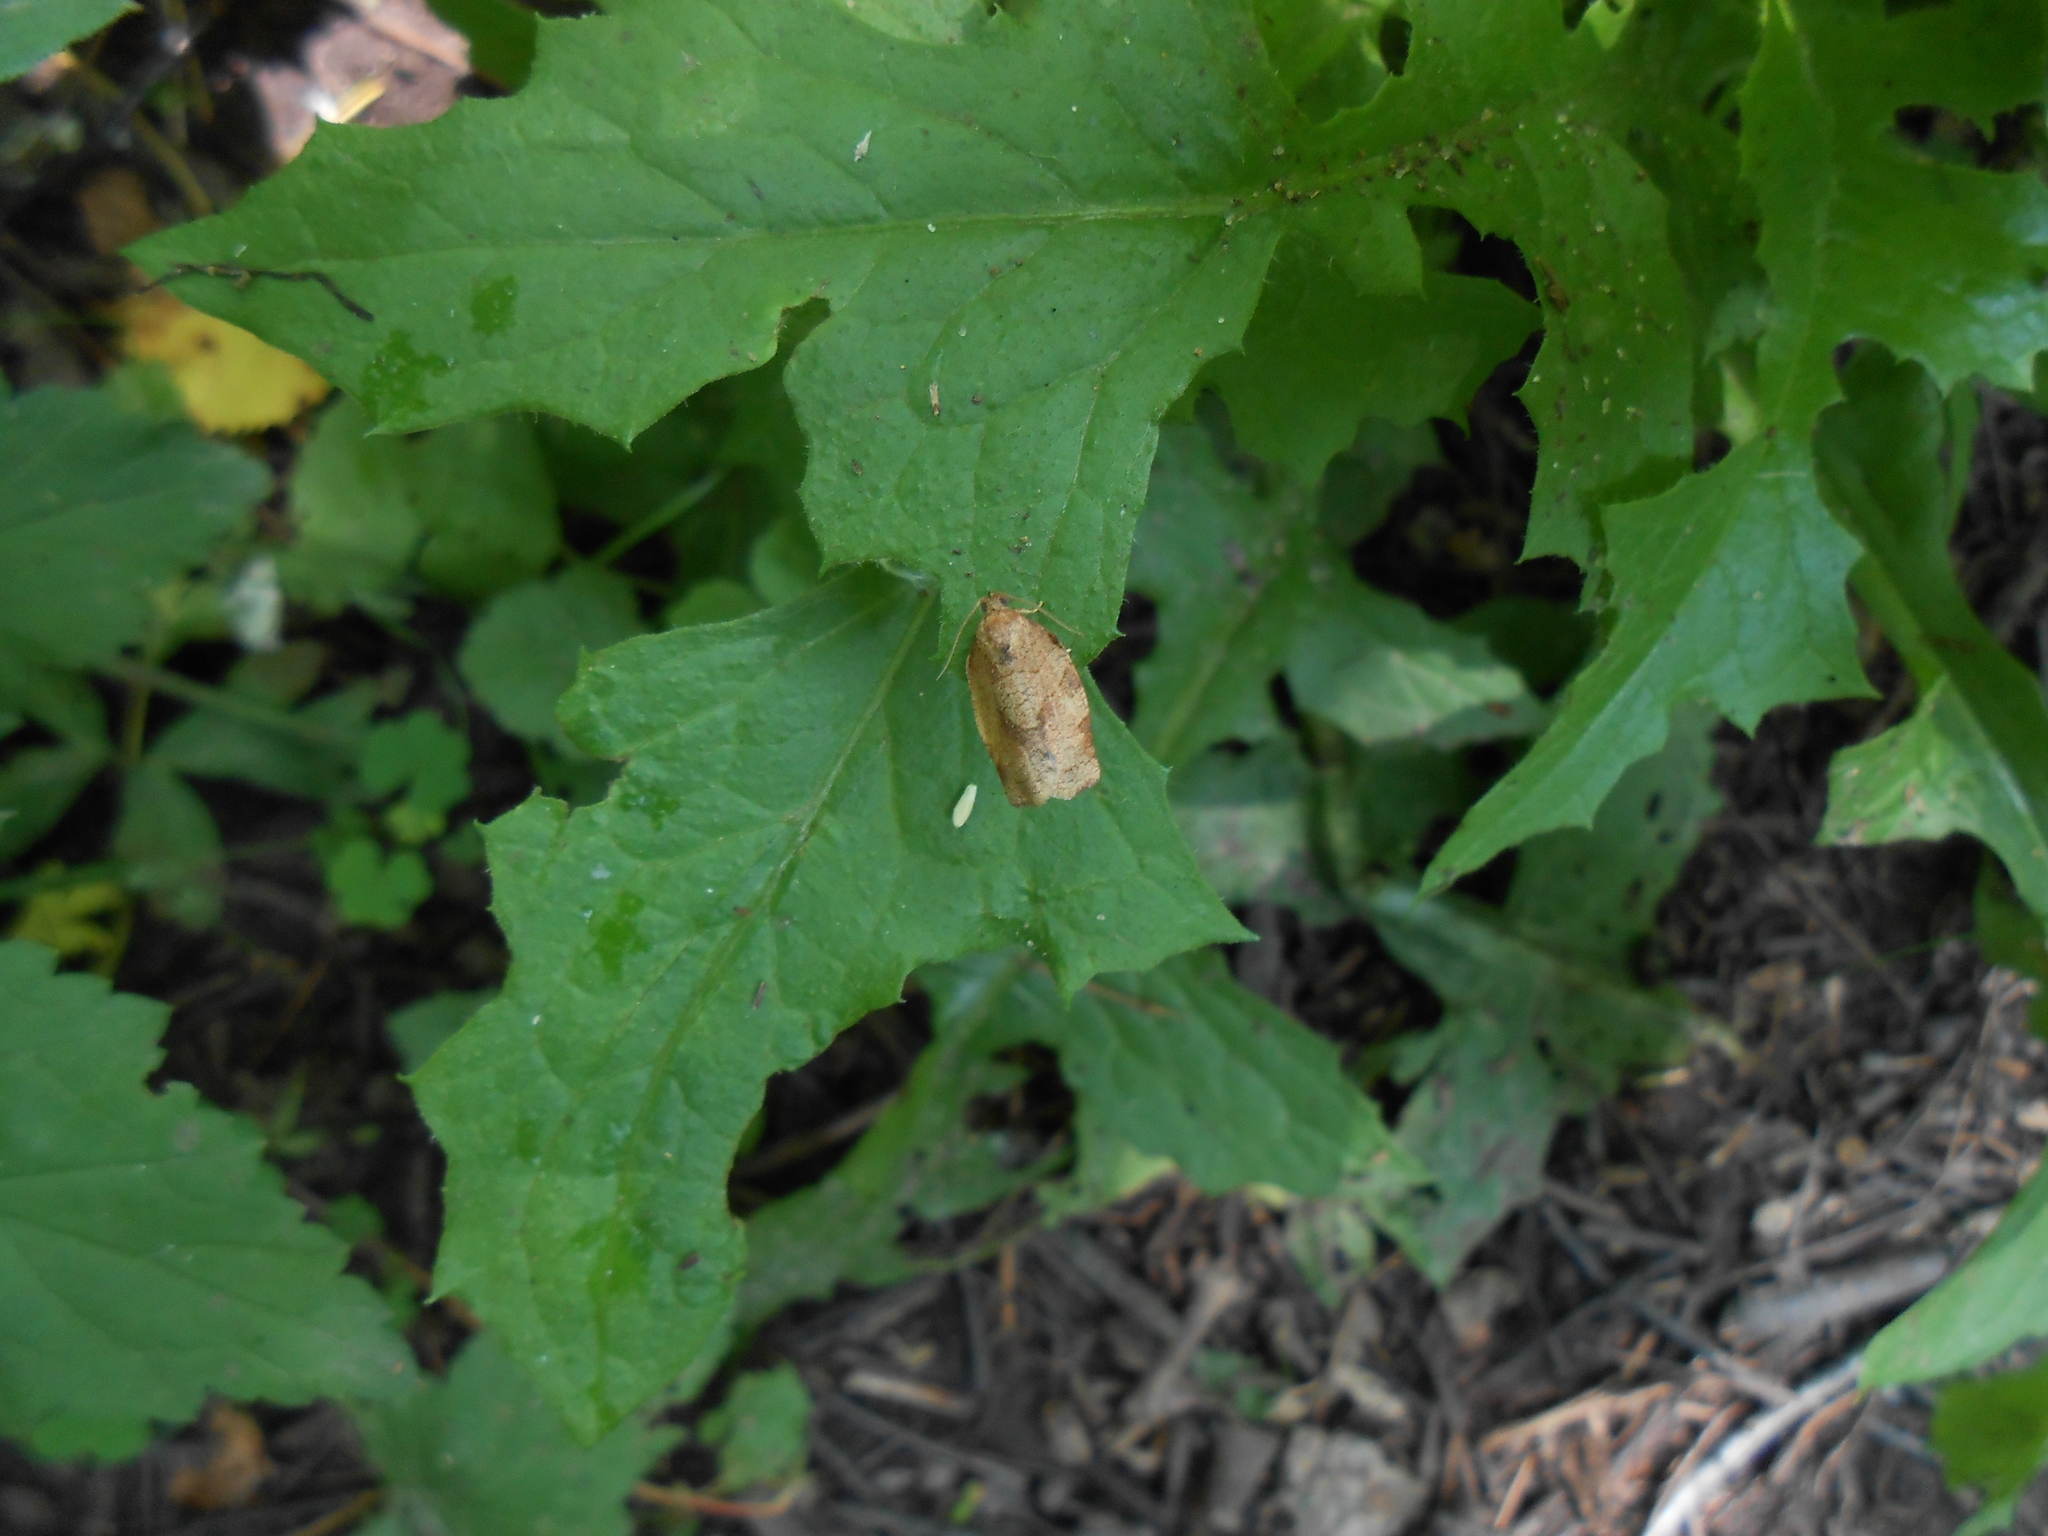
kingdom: Animalia
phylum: Arthropoda
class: Insecta
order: Lepidoptera
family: Tortricidae
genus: Choristoneura
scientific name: Choristoneura rosaceana
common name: Oblique-banded leafroller moth
